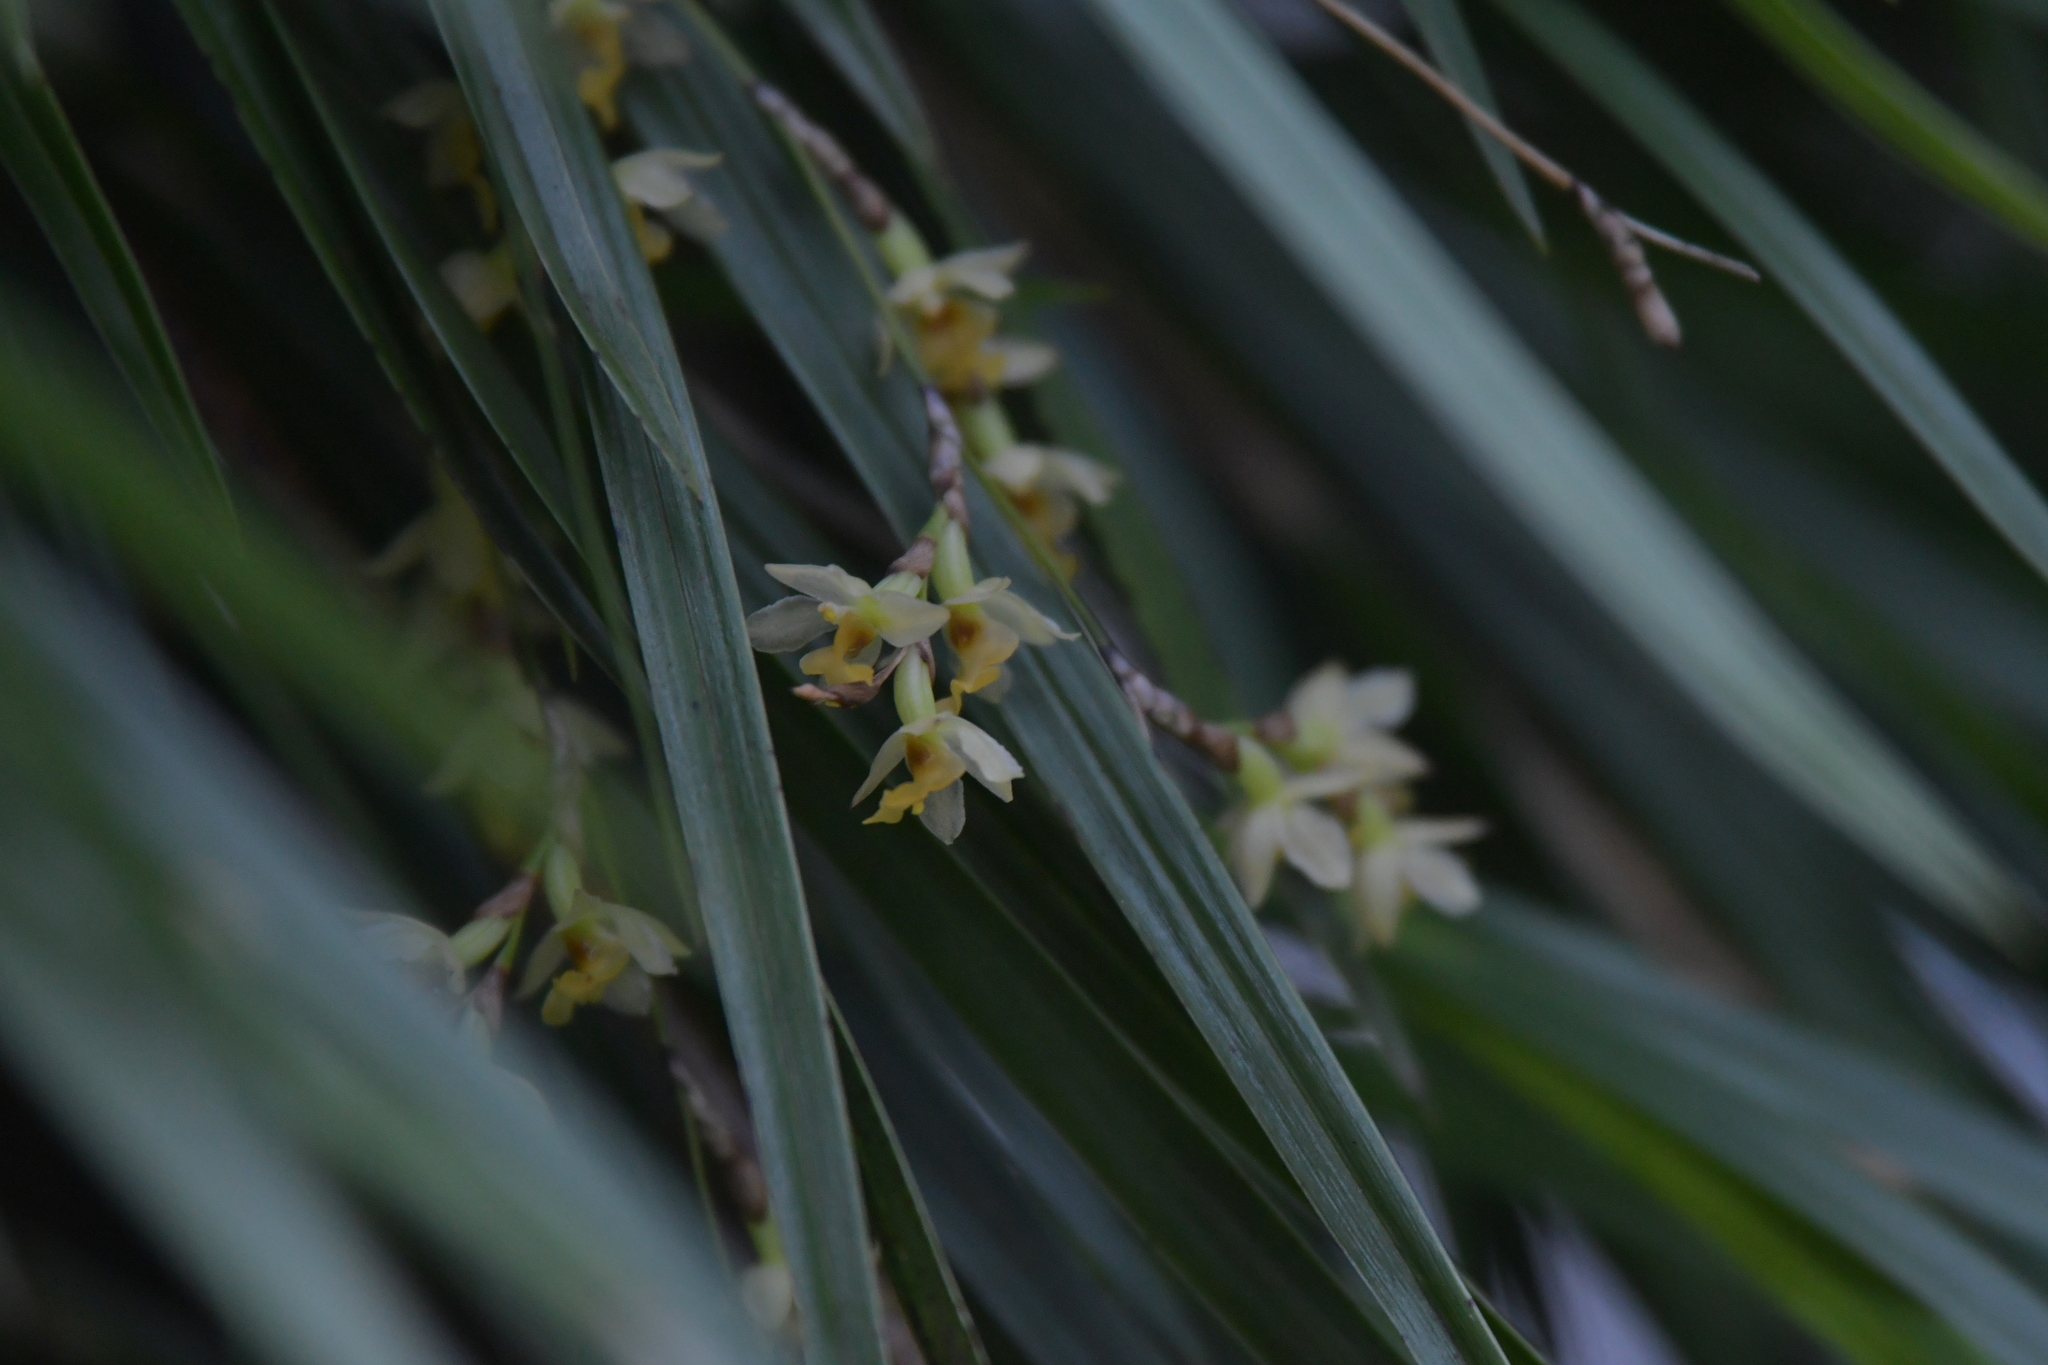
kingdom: Plantae
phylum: Tracheophyta
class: Liliopsida
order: Asparagales
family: Orchidaceae
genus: Earina
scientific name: Earina mucronata
